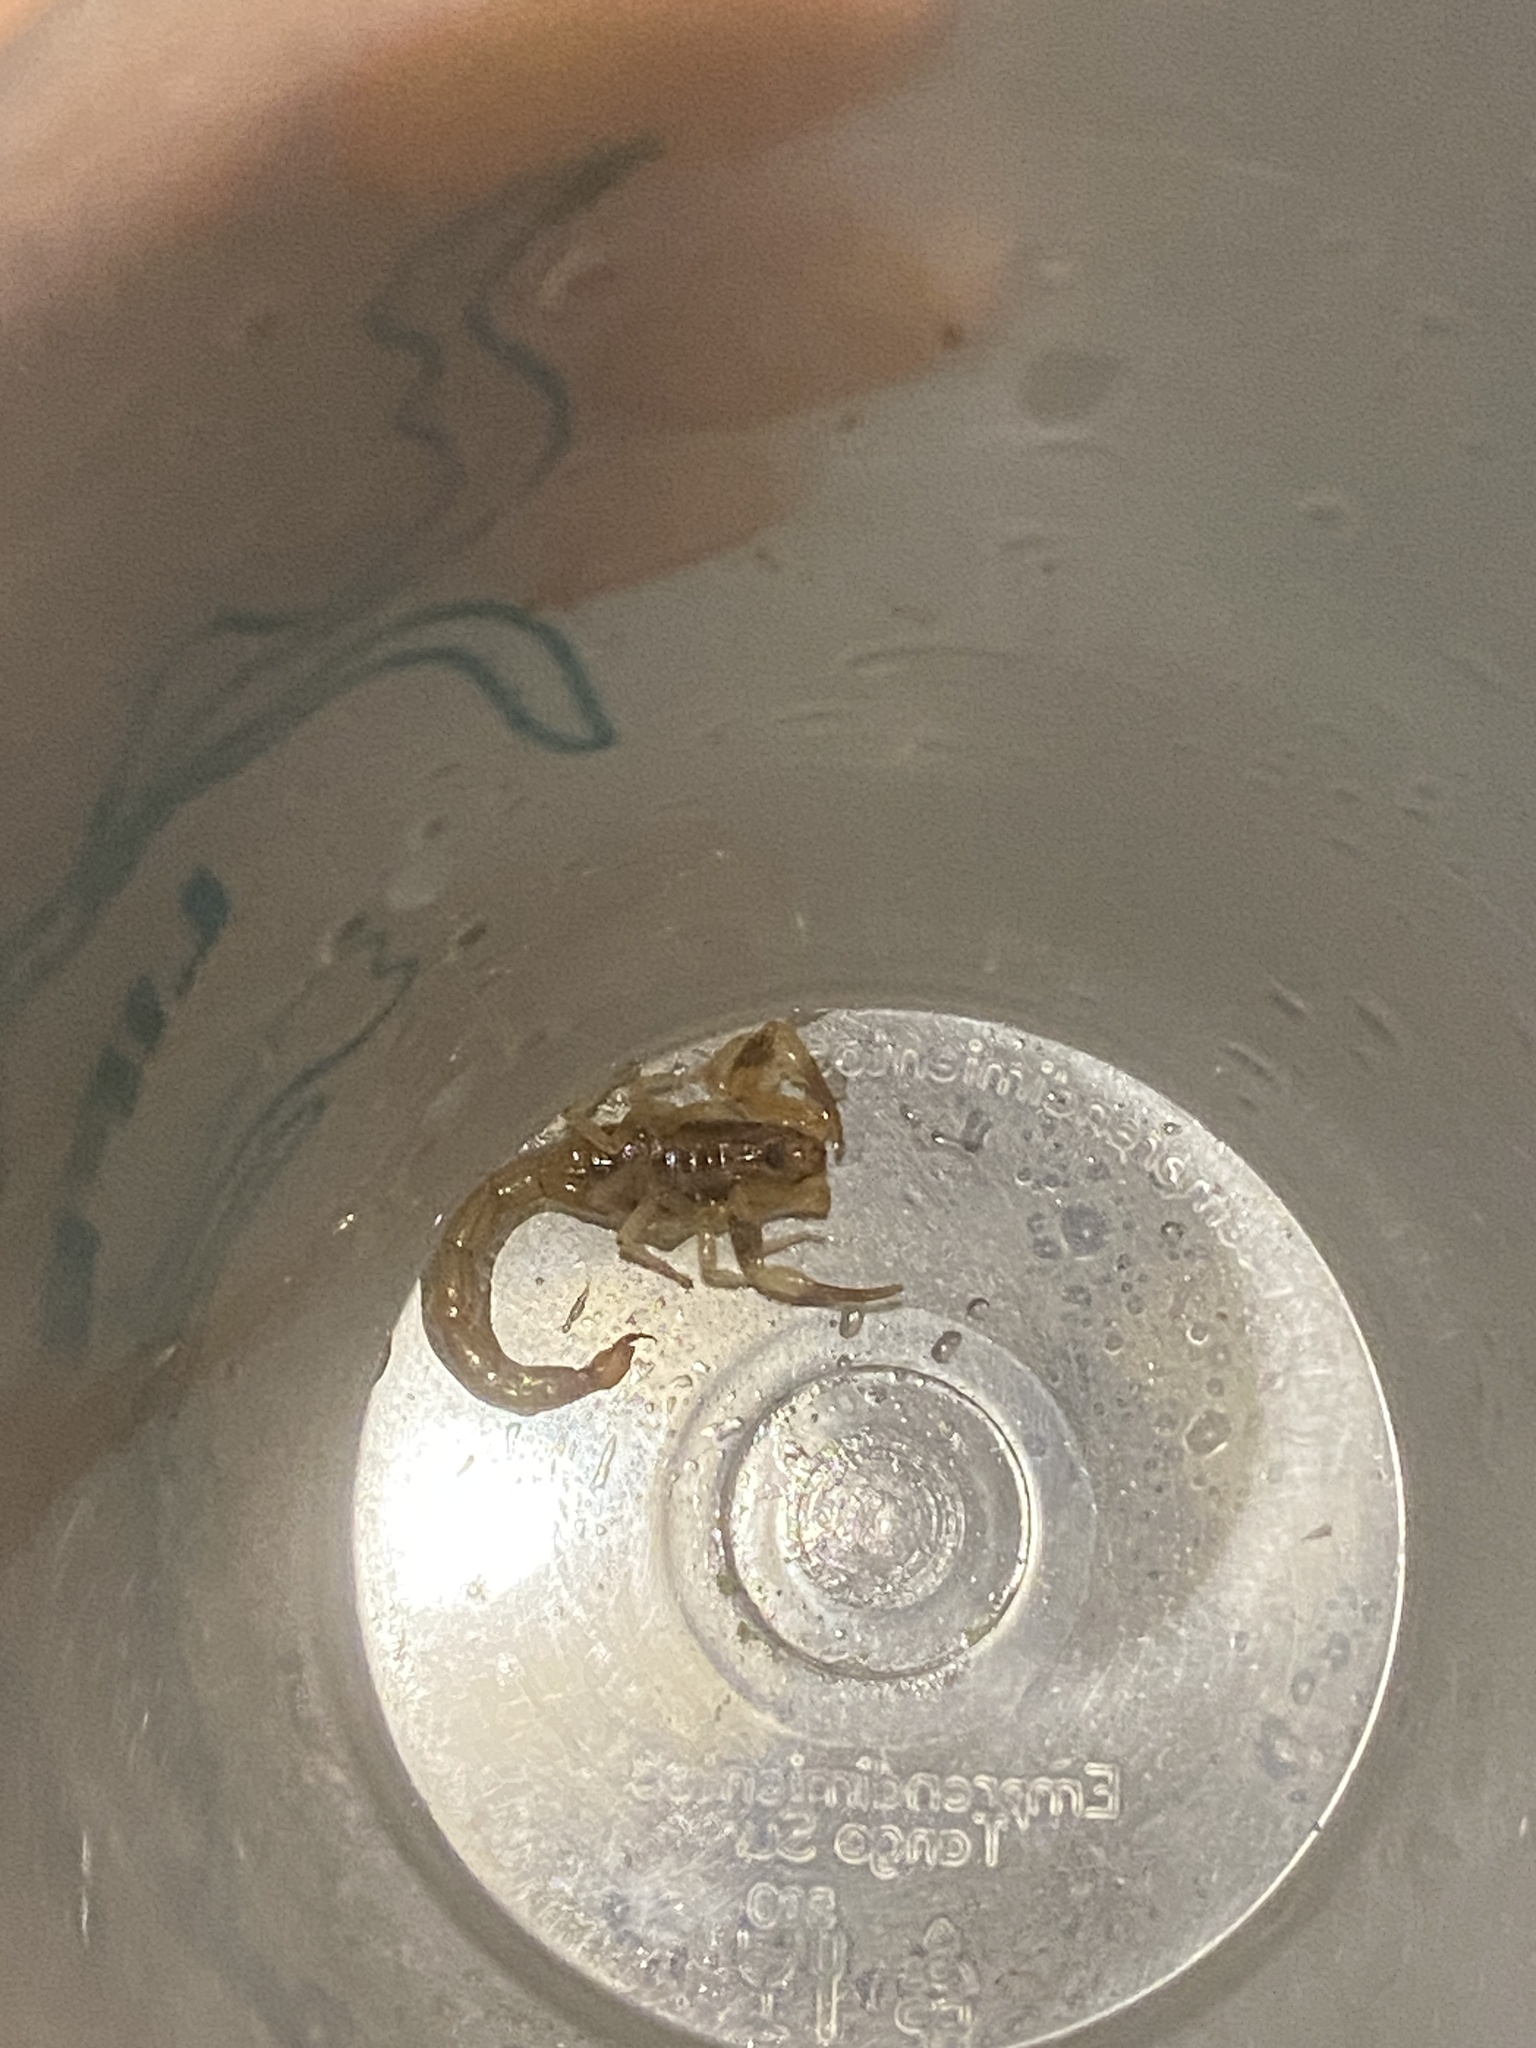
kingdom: Animalia
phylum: Arthropoda
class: Arachnida
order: Scorpiones
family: Buthidae
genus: Tityus
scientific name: Tityus carrilloi
